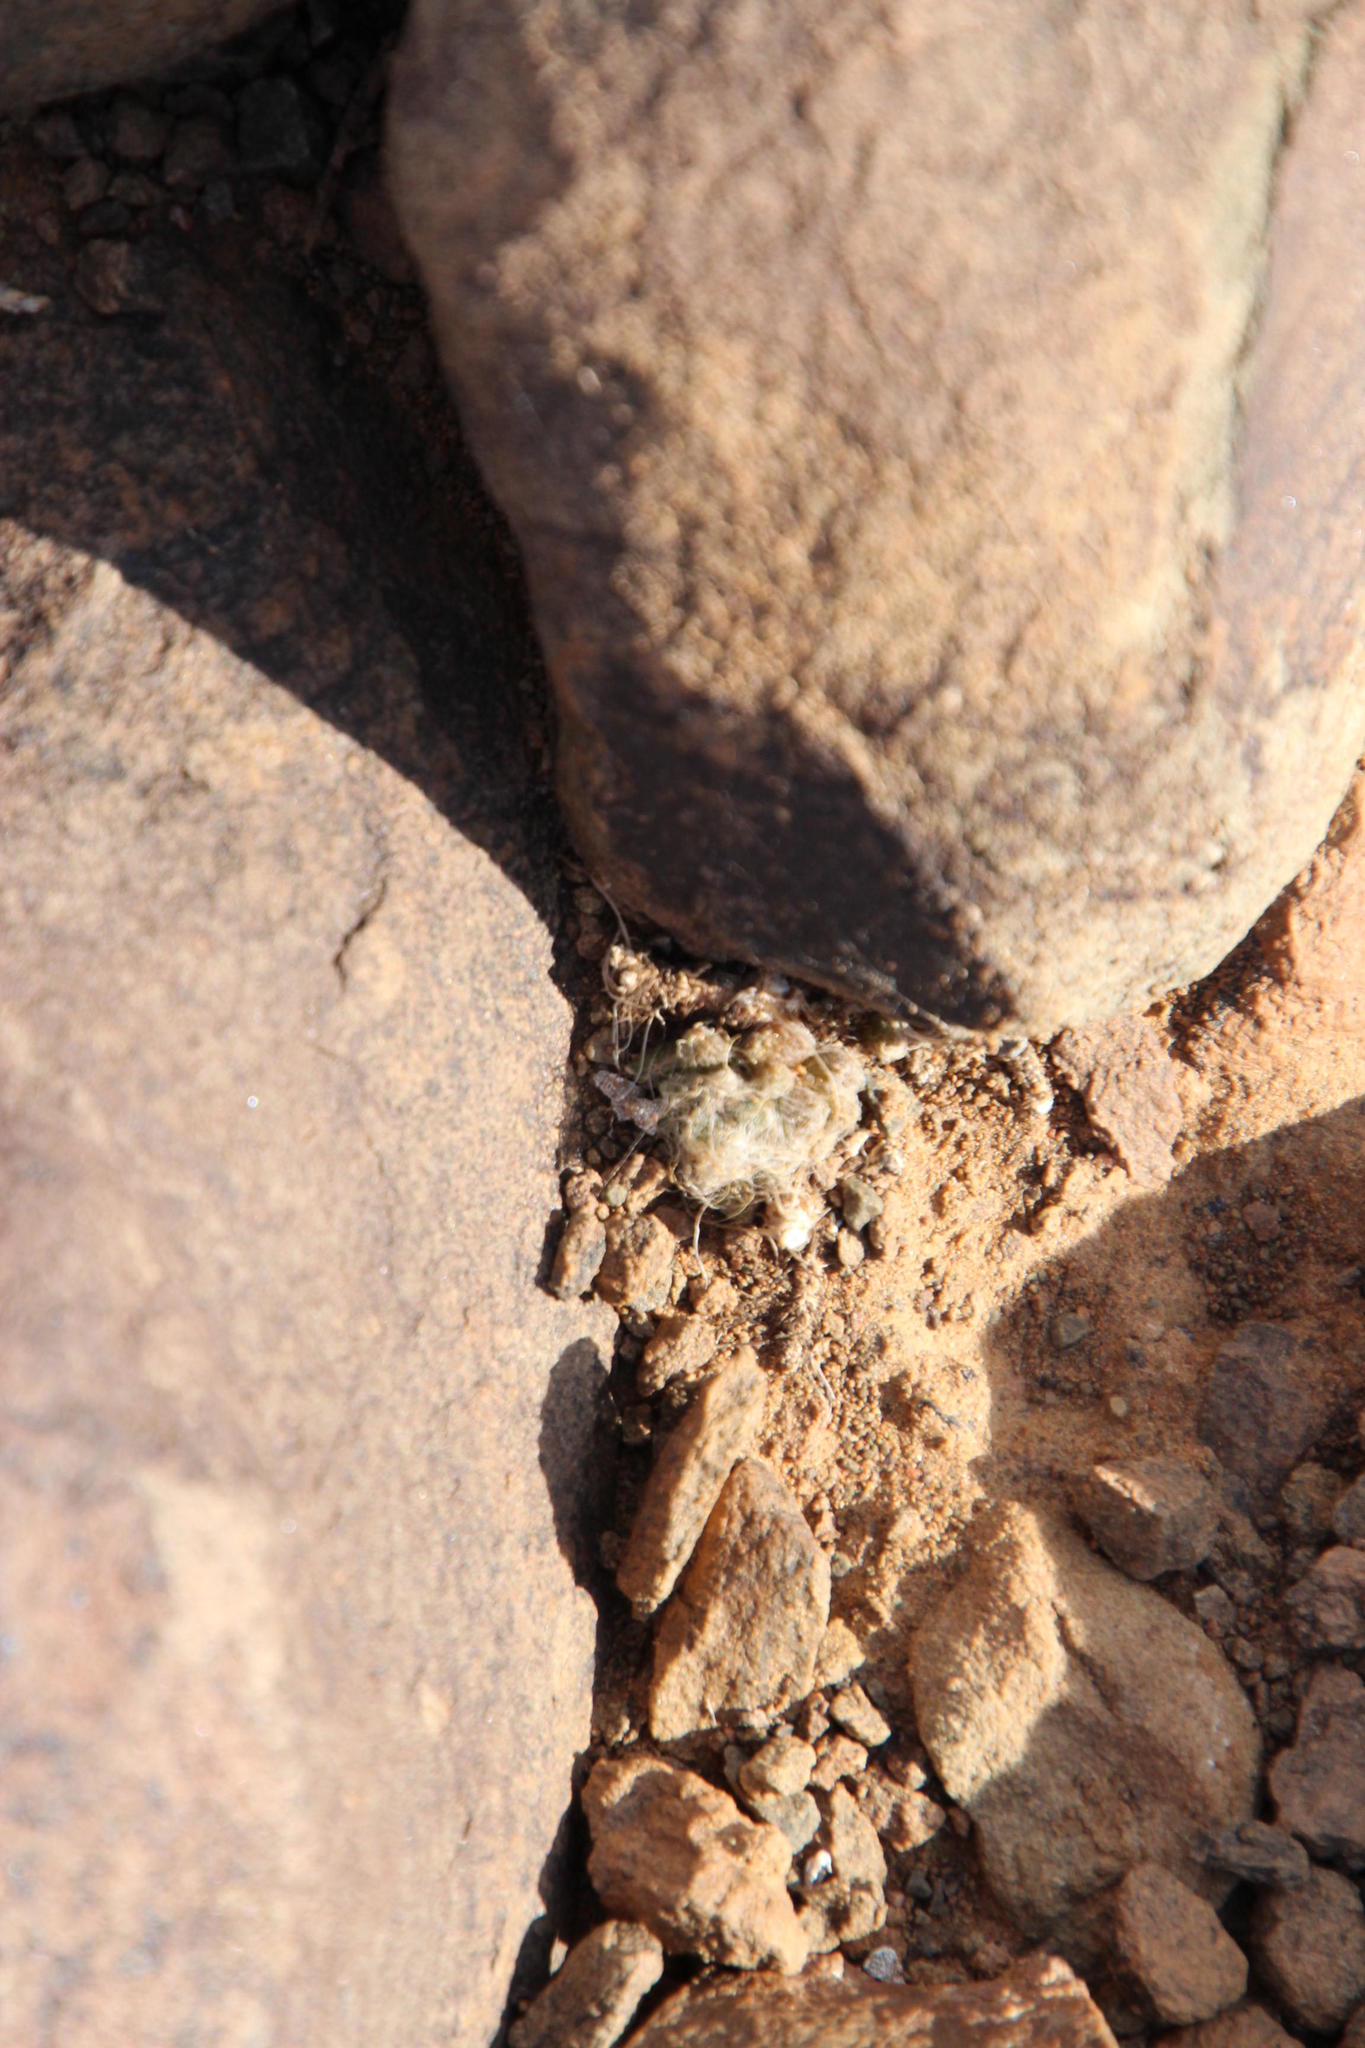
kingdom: Plantae
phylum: Tracheophyta
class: Magnoliopsida
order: Caryophyllales
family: Anacampserotaceae
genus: Anacampseros
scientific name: Anacampseros albidiflora
